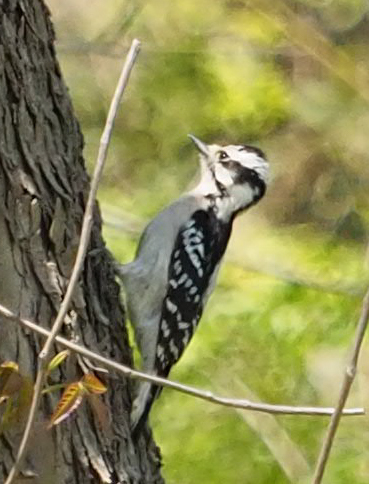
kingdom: Animalia
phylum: Chordata
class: Aves
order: Piciformes
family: Picidae
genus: Dryobates
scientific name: Dryobates pubescens
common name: Downy woodpecker
